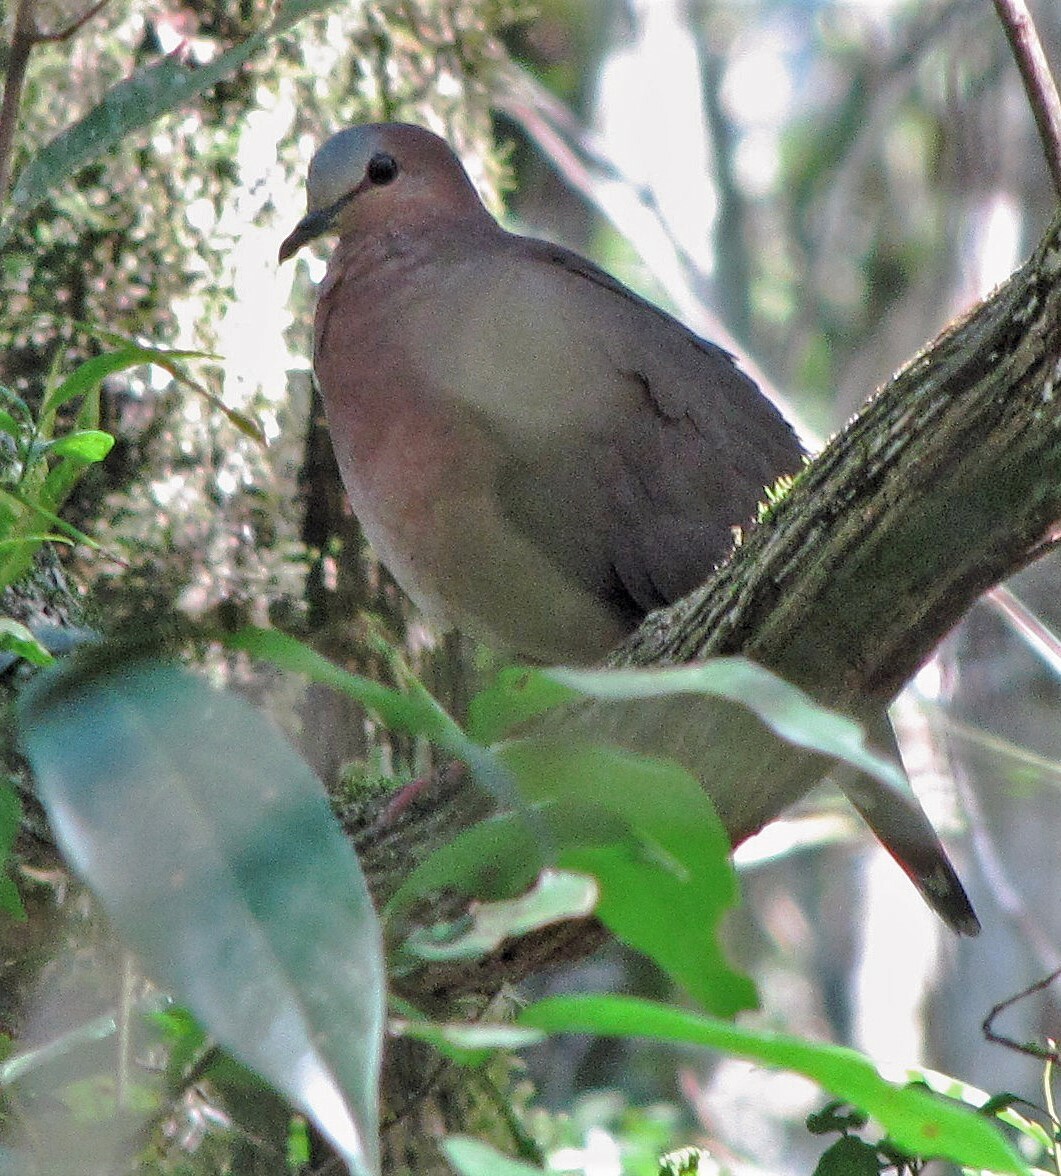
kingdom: Animalia
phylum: Chordata
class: Aves
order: Columbiformes
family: Columbidae
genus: Leptotila
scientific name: Leptotila rufaxilla
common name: Grey-fronted dove
